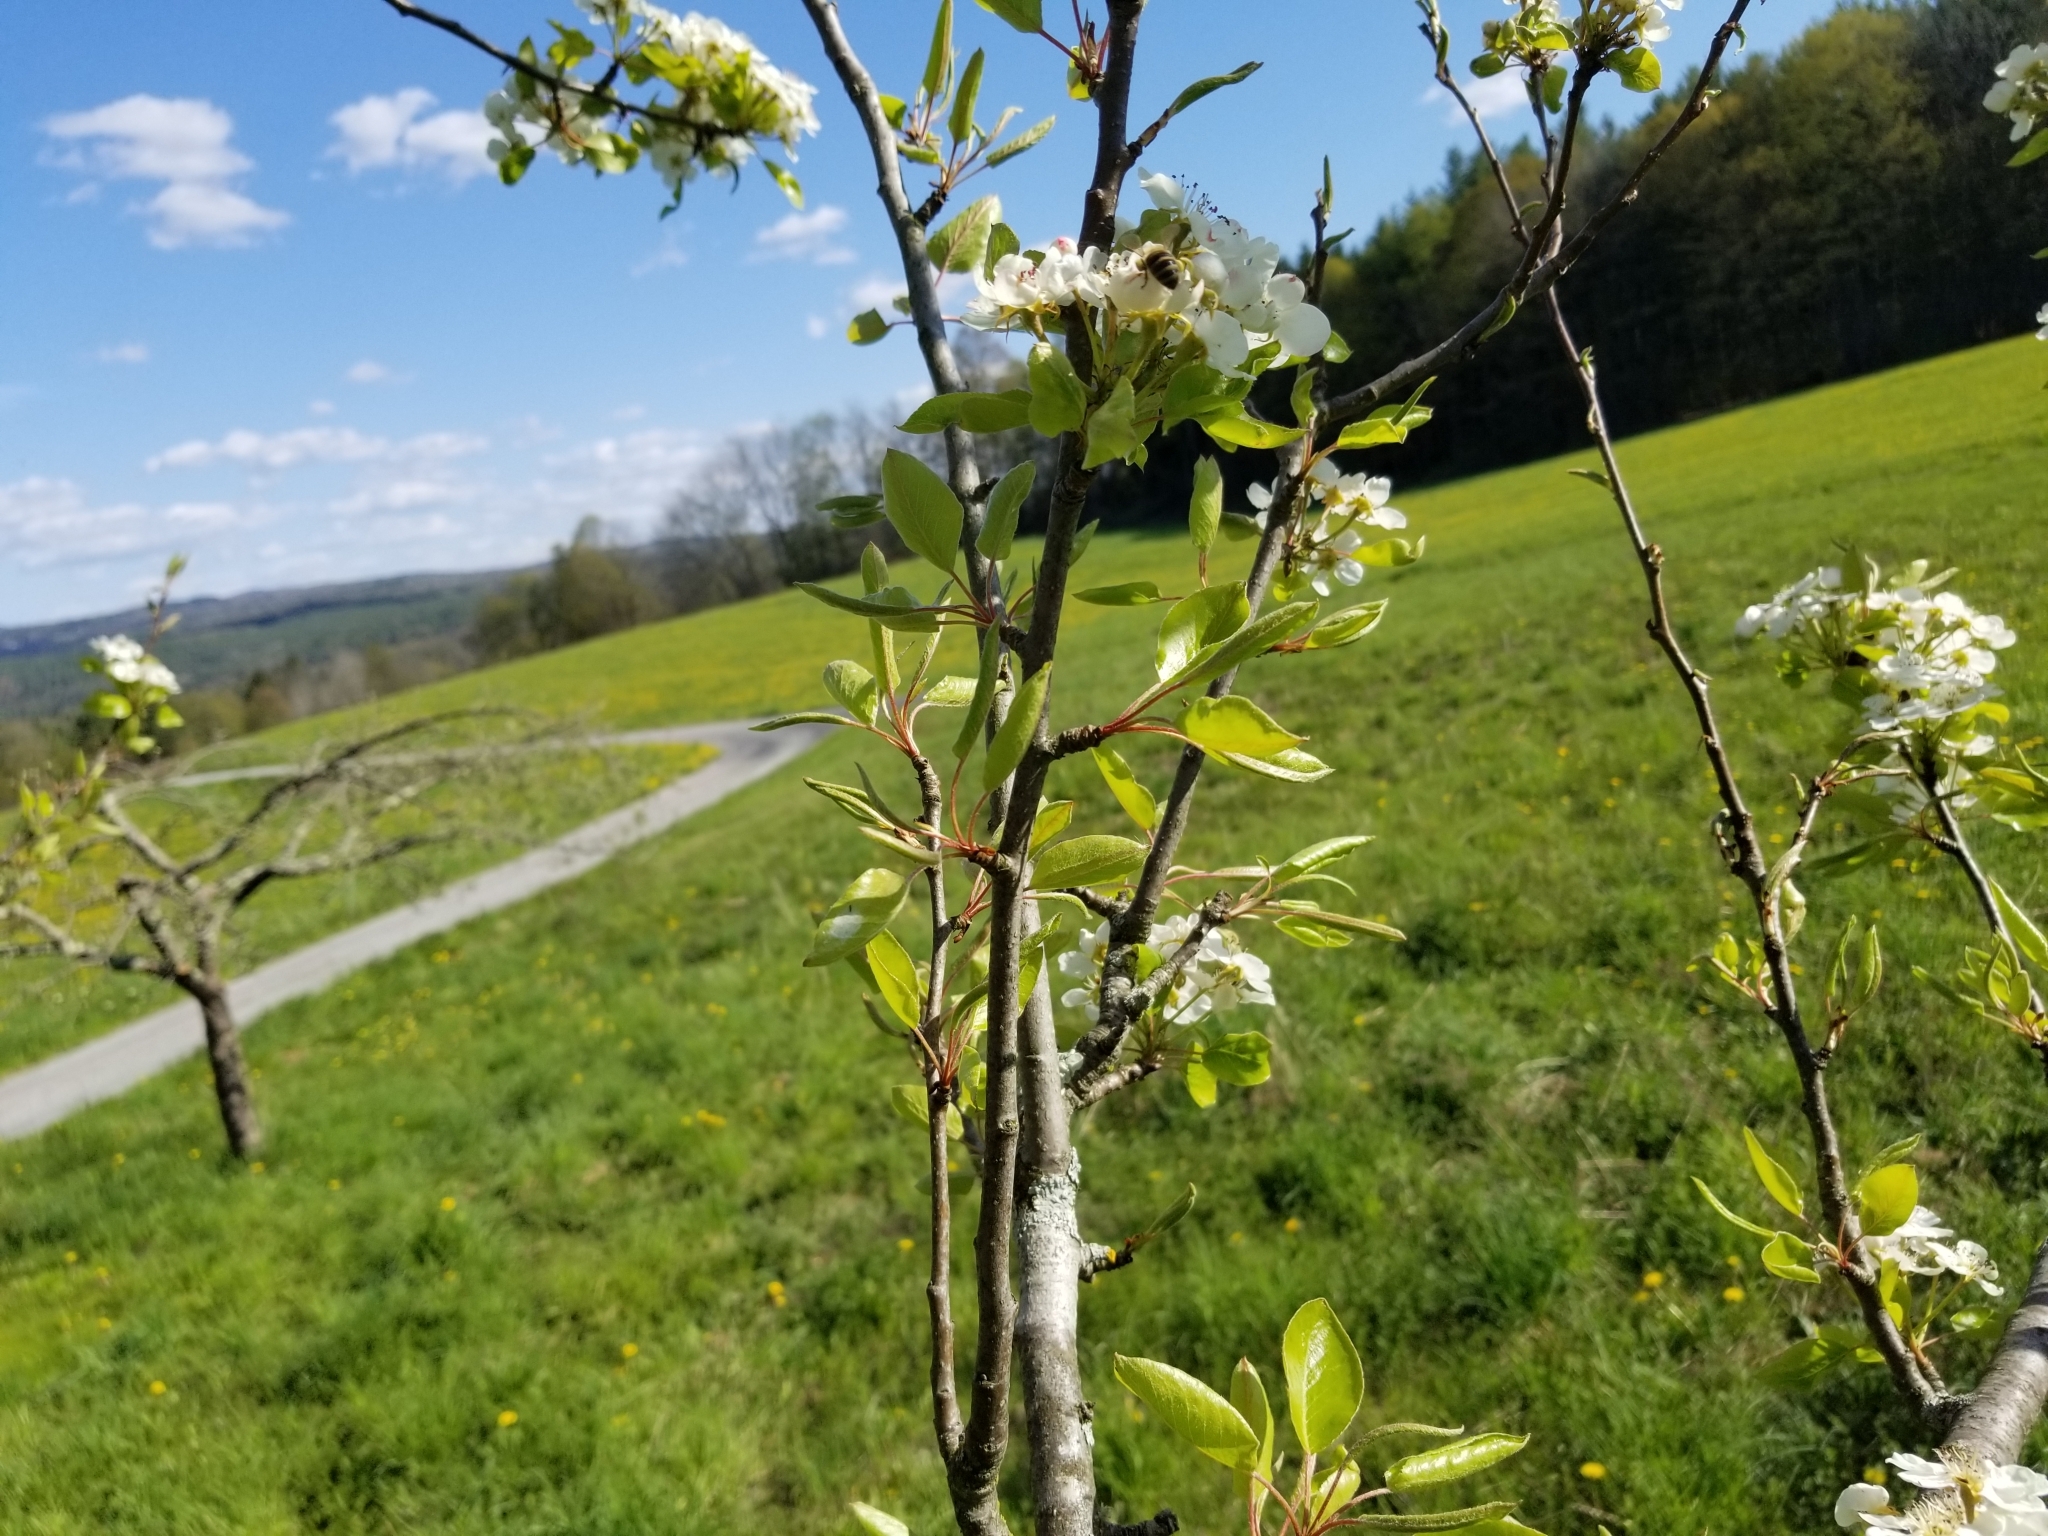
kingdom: Animalia
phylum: Arthropoda
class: Insecta
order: Hymenoptera
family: Apidae
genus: Apis
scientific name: Apis mellifera
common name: Honey bee
